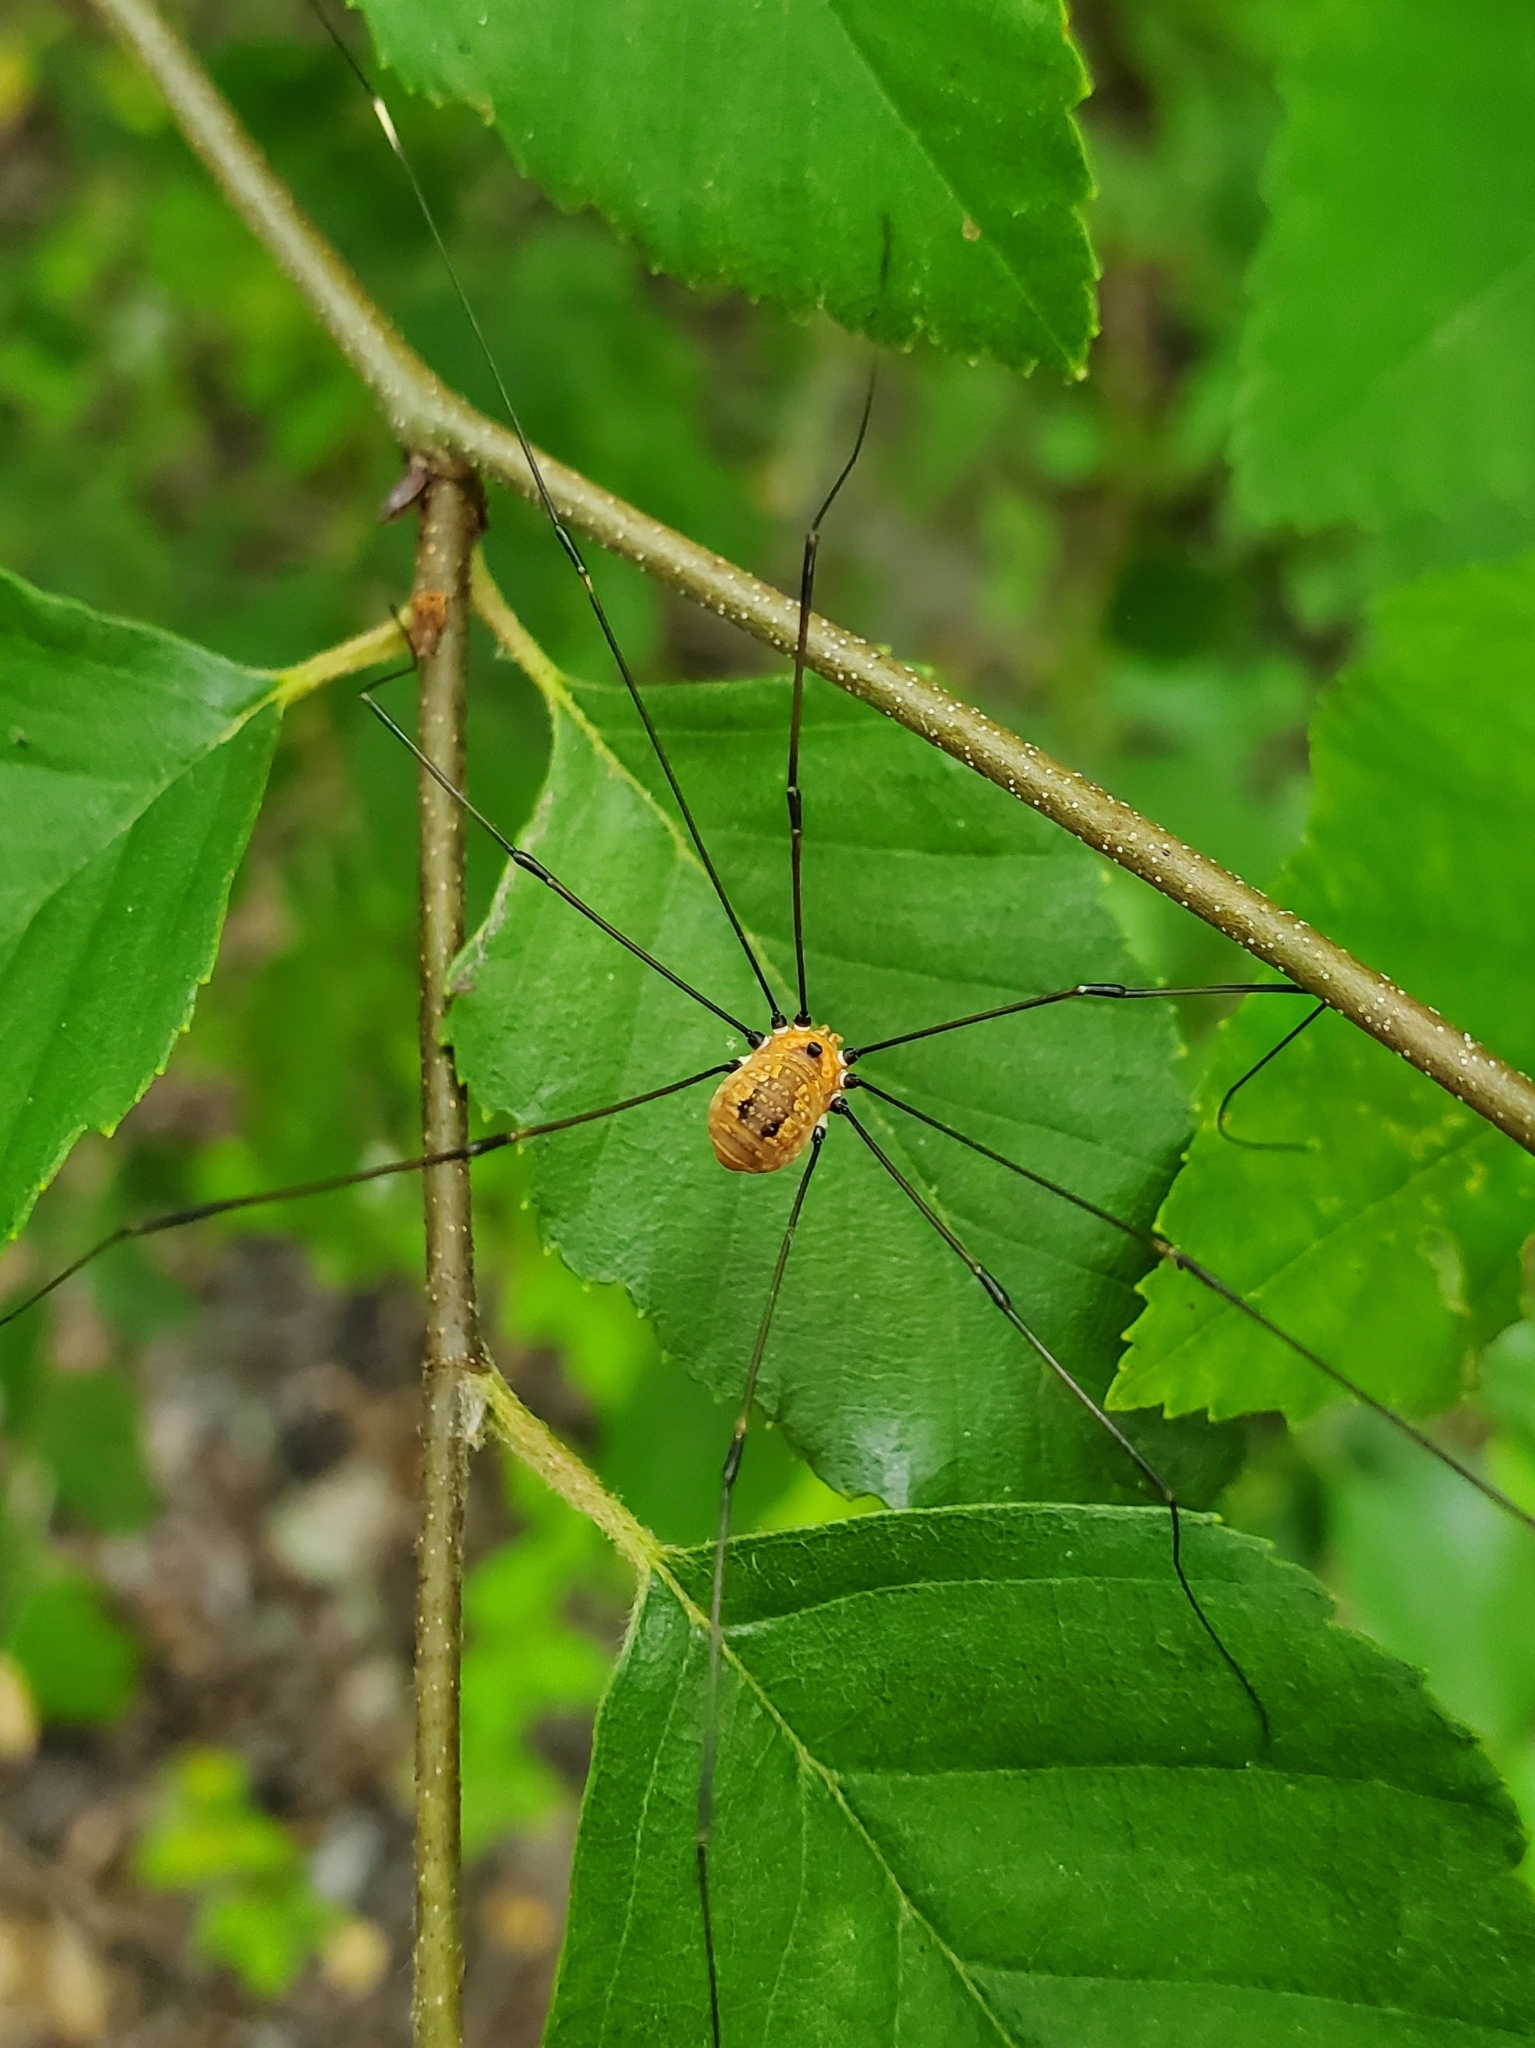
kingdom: Animalia
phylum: Arthropoda
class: Arachnida
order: Opiliones
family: Sclerosomatidae
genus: Leiobunum
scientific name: Leiobunum aldrichi
